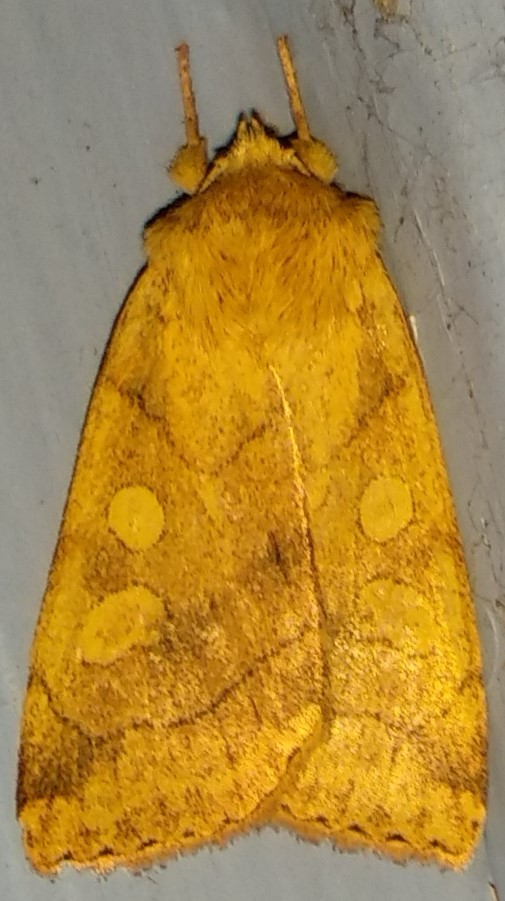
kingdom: Animalia
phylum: Arthropoda
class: Insecta
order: Lepidoptera
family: Noctuidae
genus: Enargia
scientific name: Enargia decolor
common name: Aspen twoleaf tier moth
